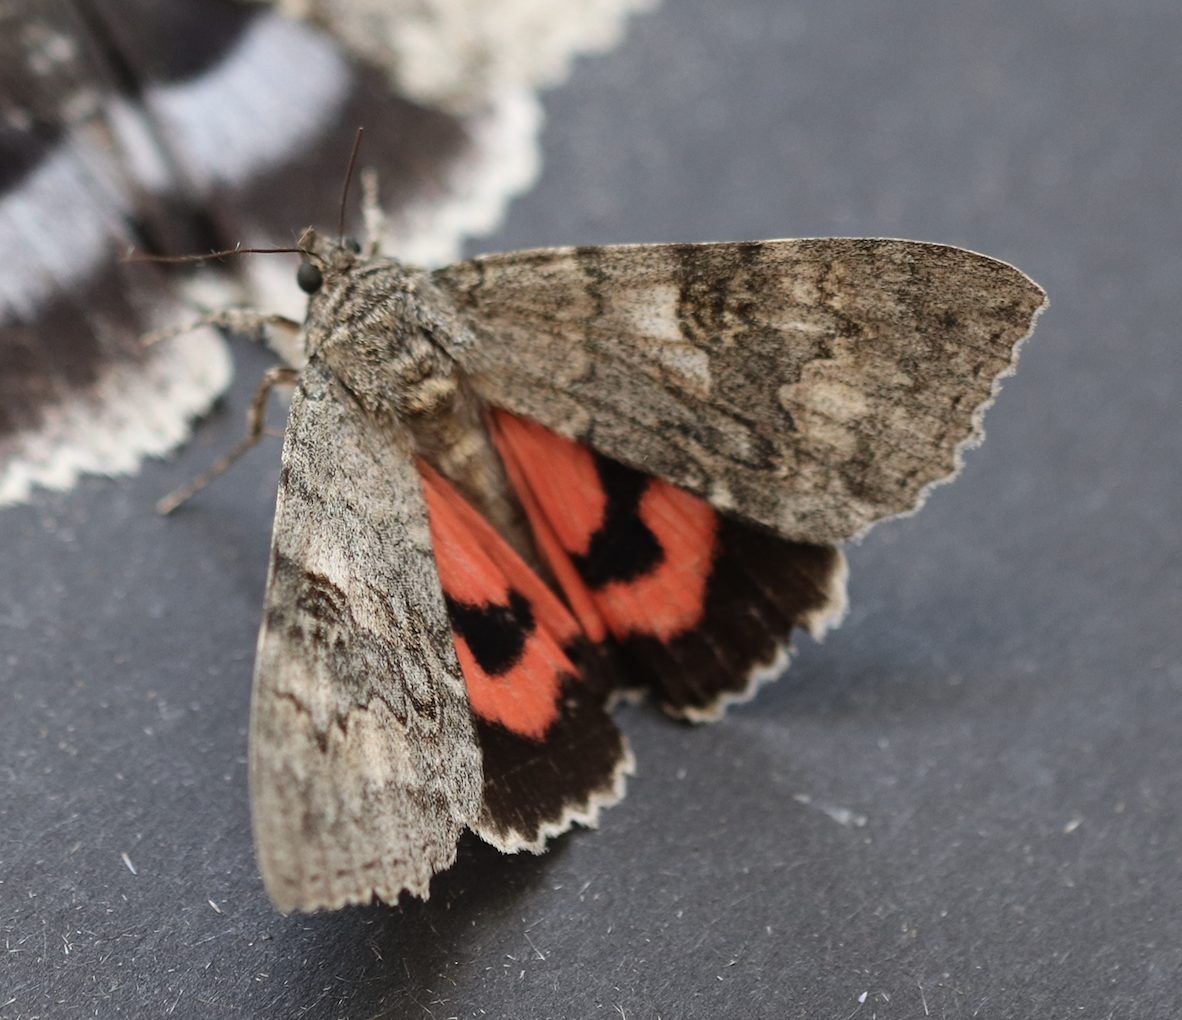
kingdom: Animalia
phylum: Arthropoda
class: Insecta
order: Lepidoptera
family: Erebidae
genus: Catocala
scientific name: Catocala nupta
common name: Red underwing
